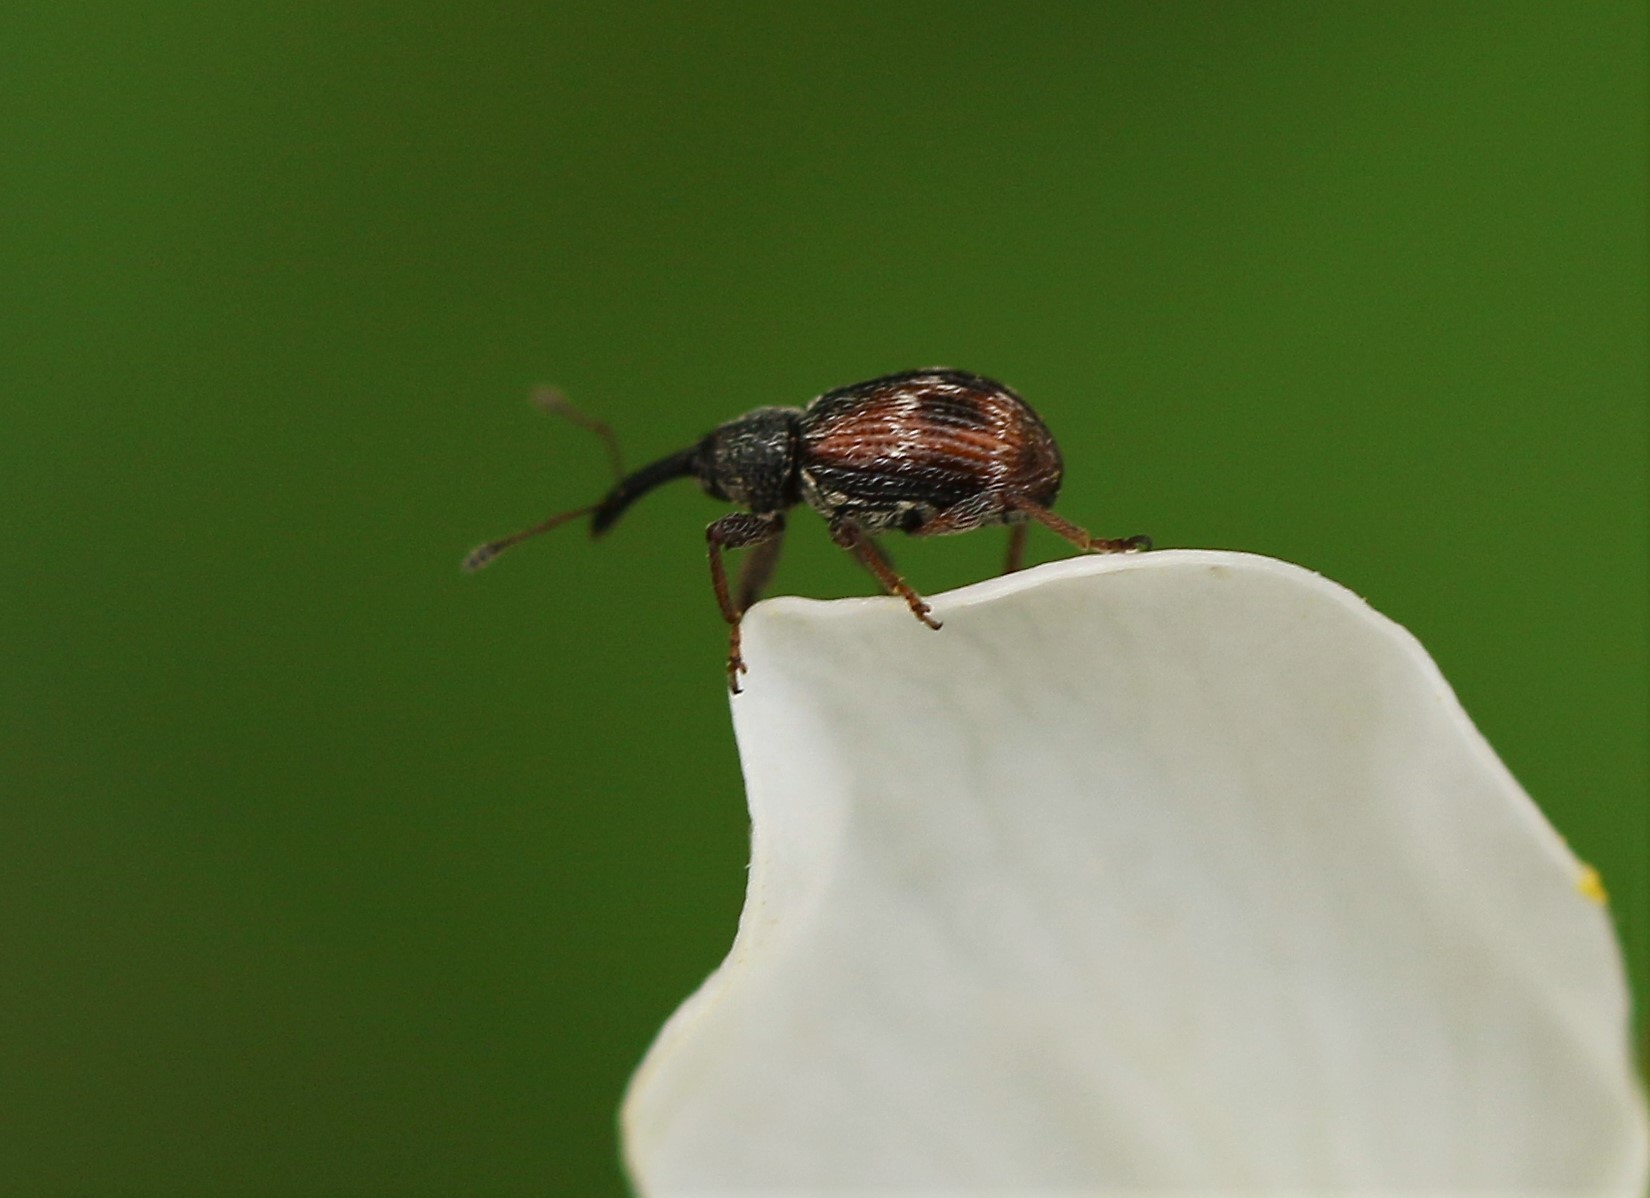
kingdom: Animalia
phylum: Arthropoda
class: Insecta
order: Coleoptera
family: Curculionidae
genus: Anthonomus
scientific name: Anthonomus signatus
